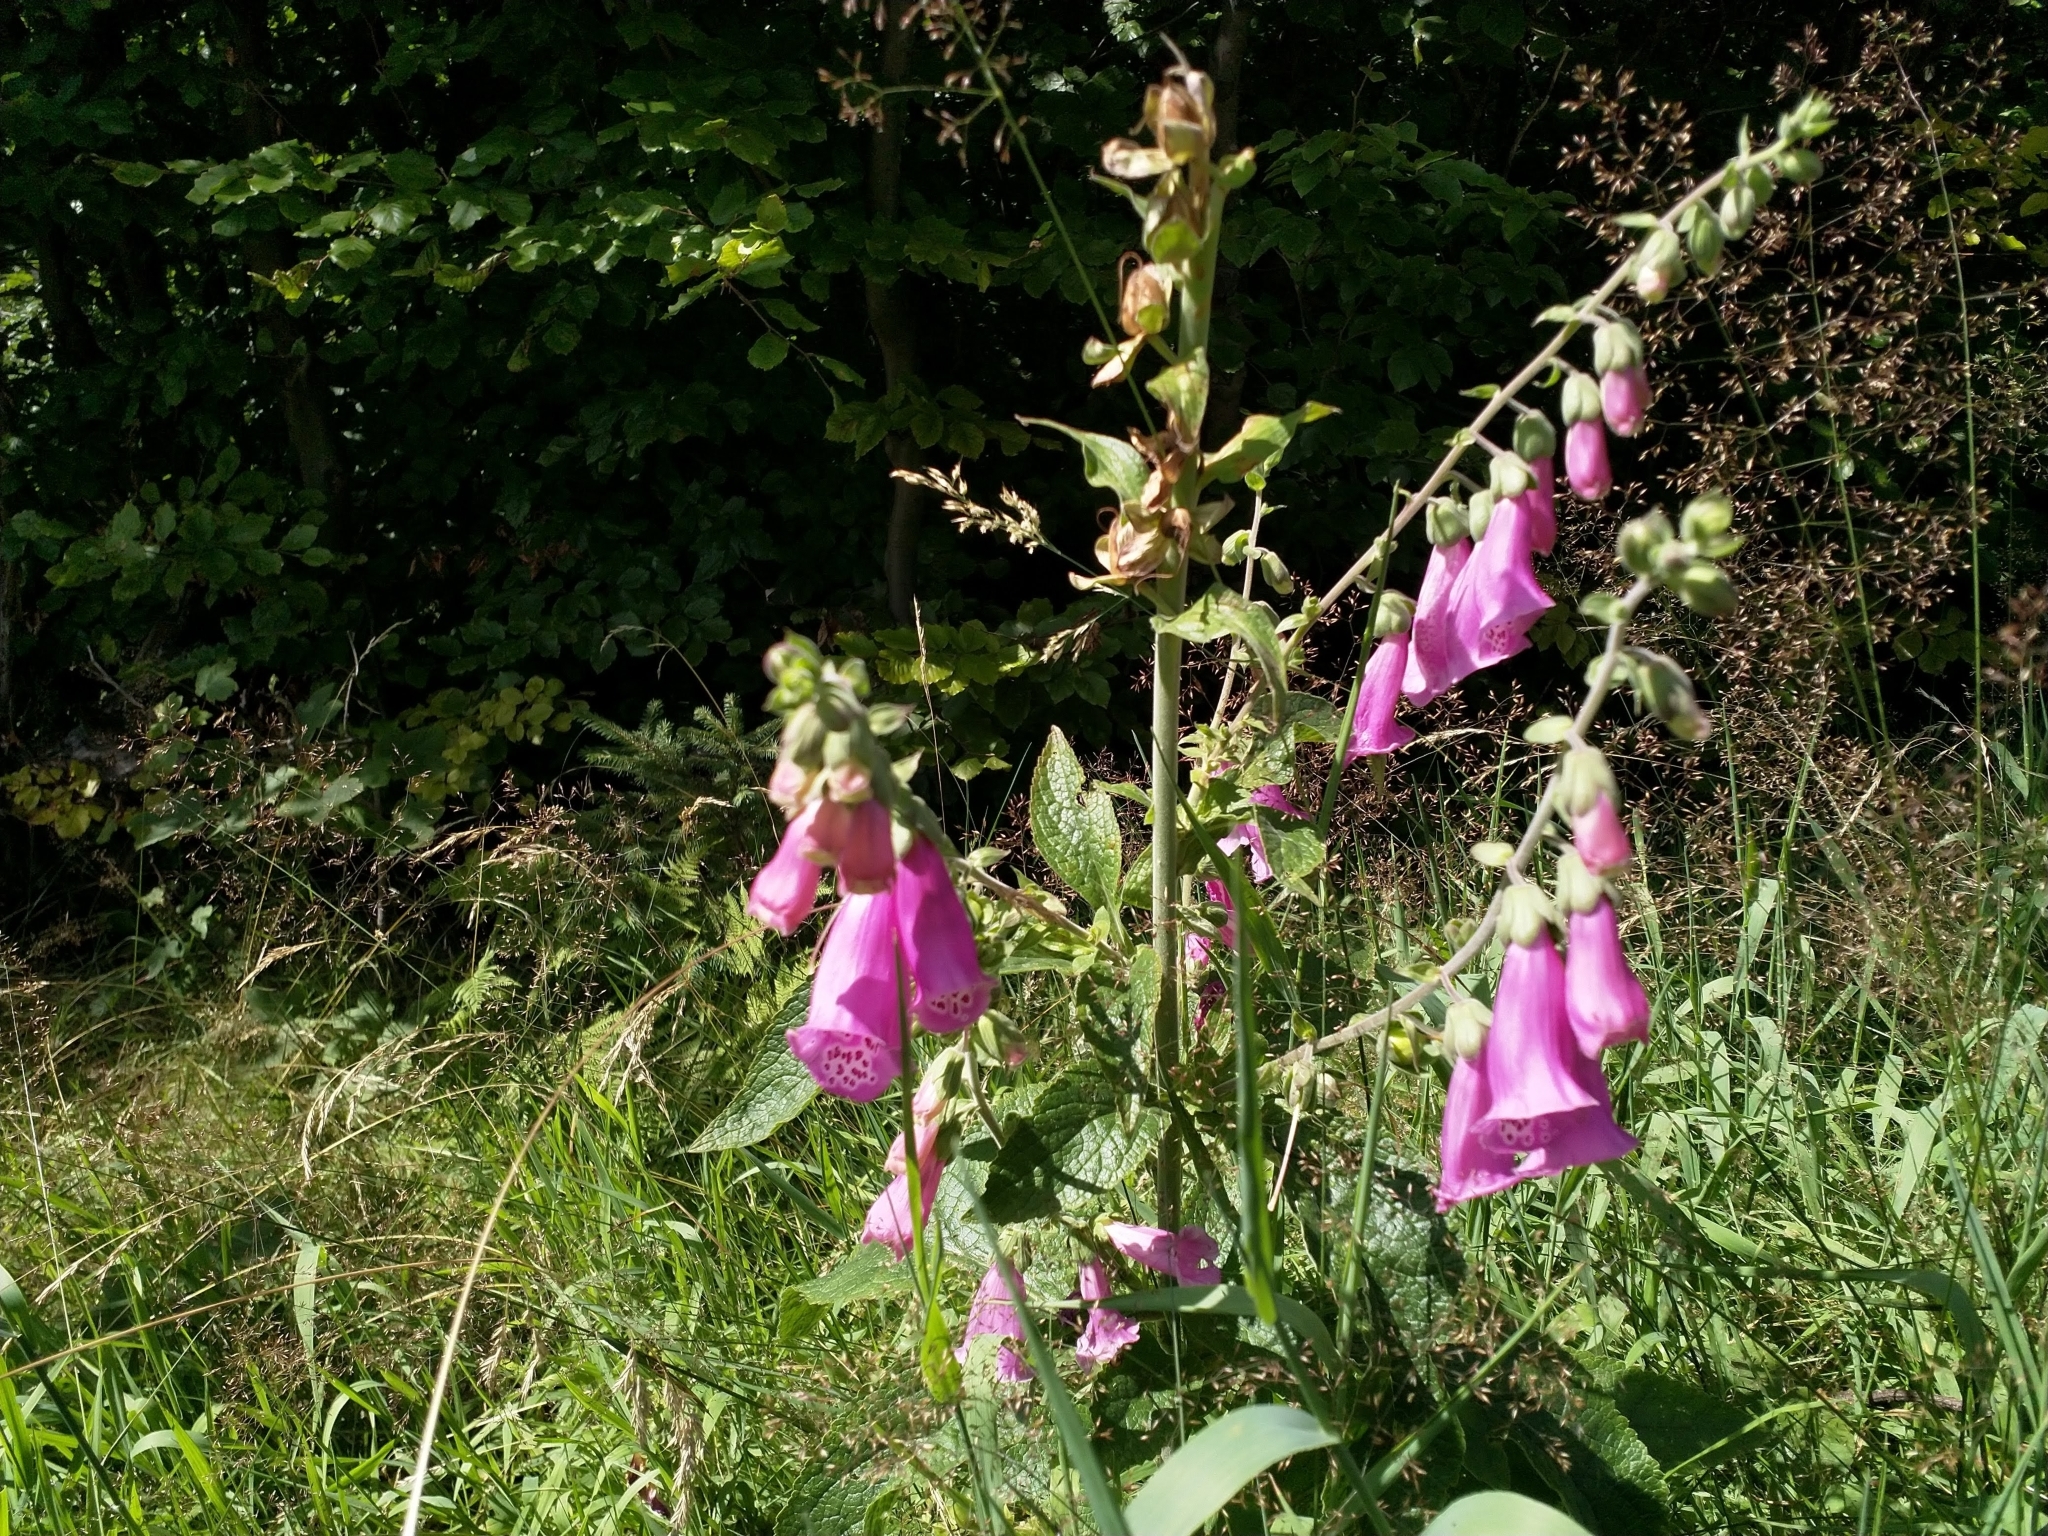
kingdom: Plantae
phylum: Tracheophyta
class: Magnoliopsida
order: Lamiales
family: Plantaginaceae
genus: Digitalis
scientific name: Digitalis purpurea
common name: Foxglove
